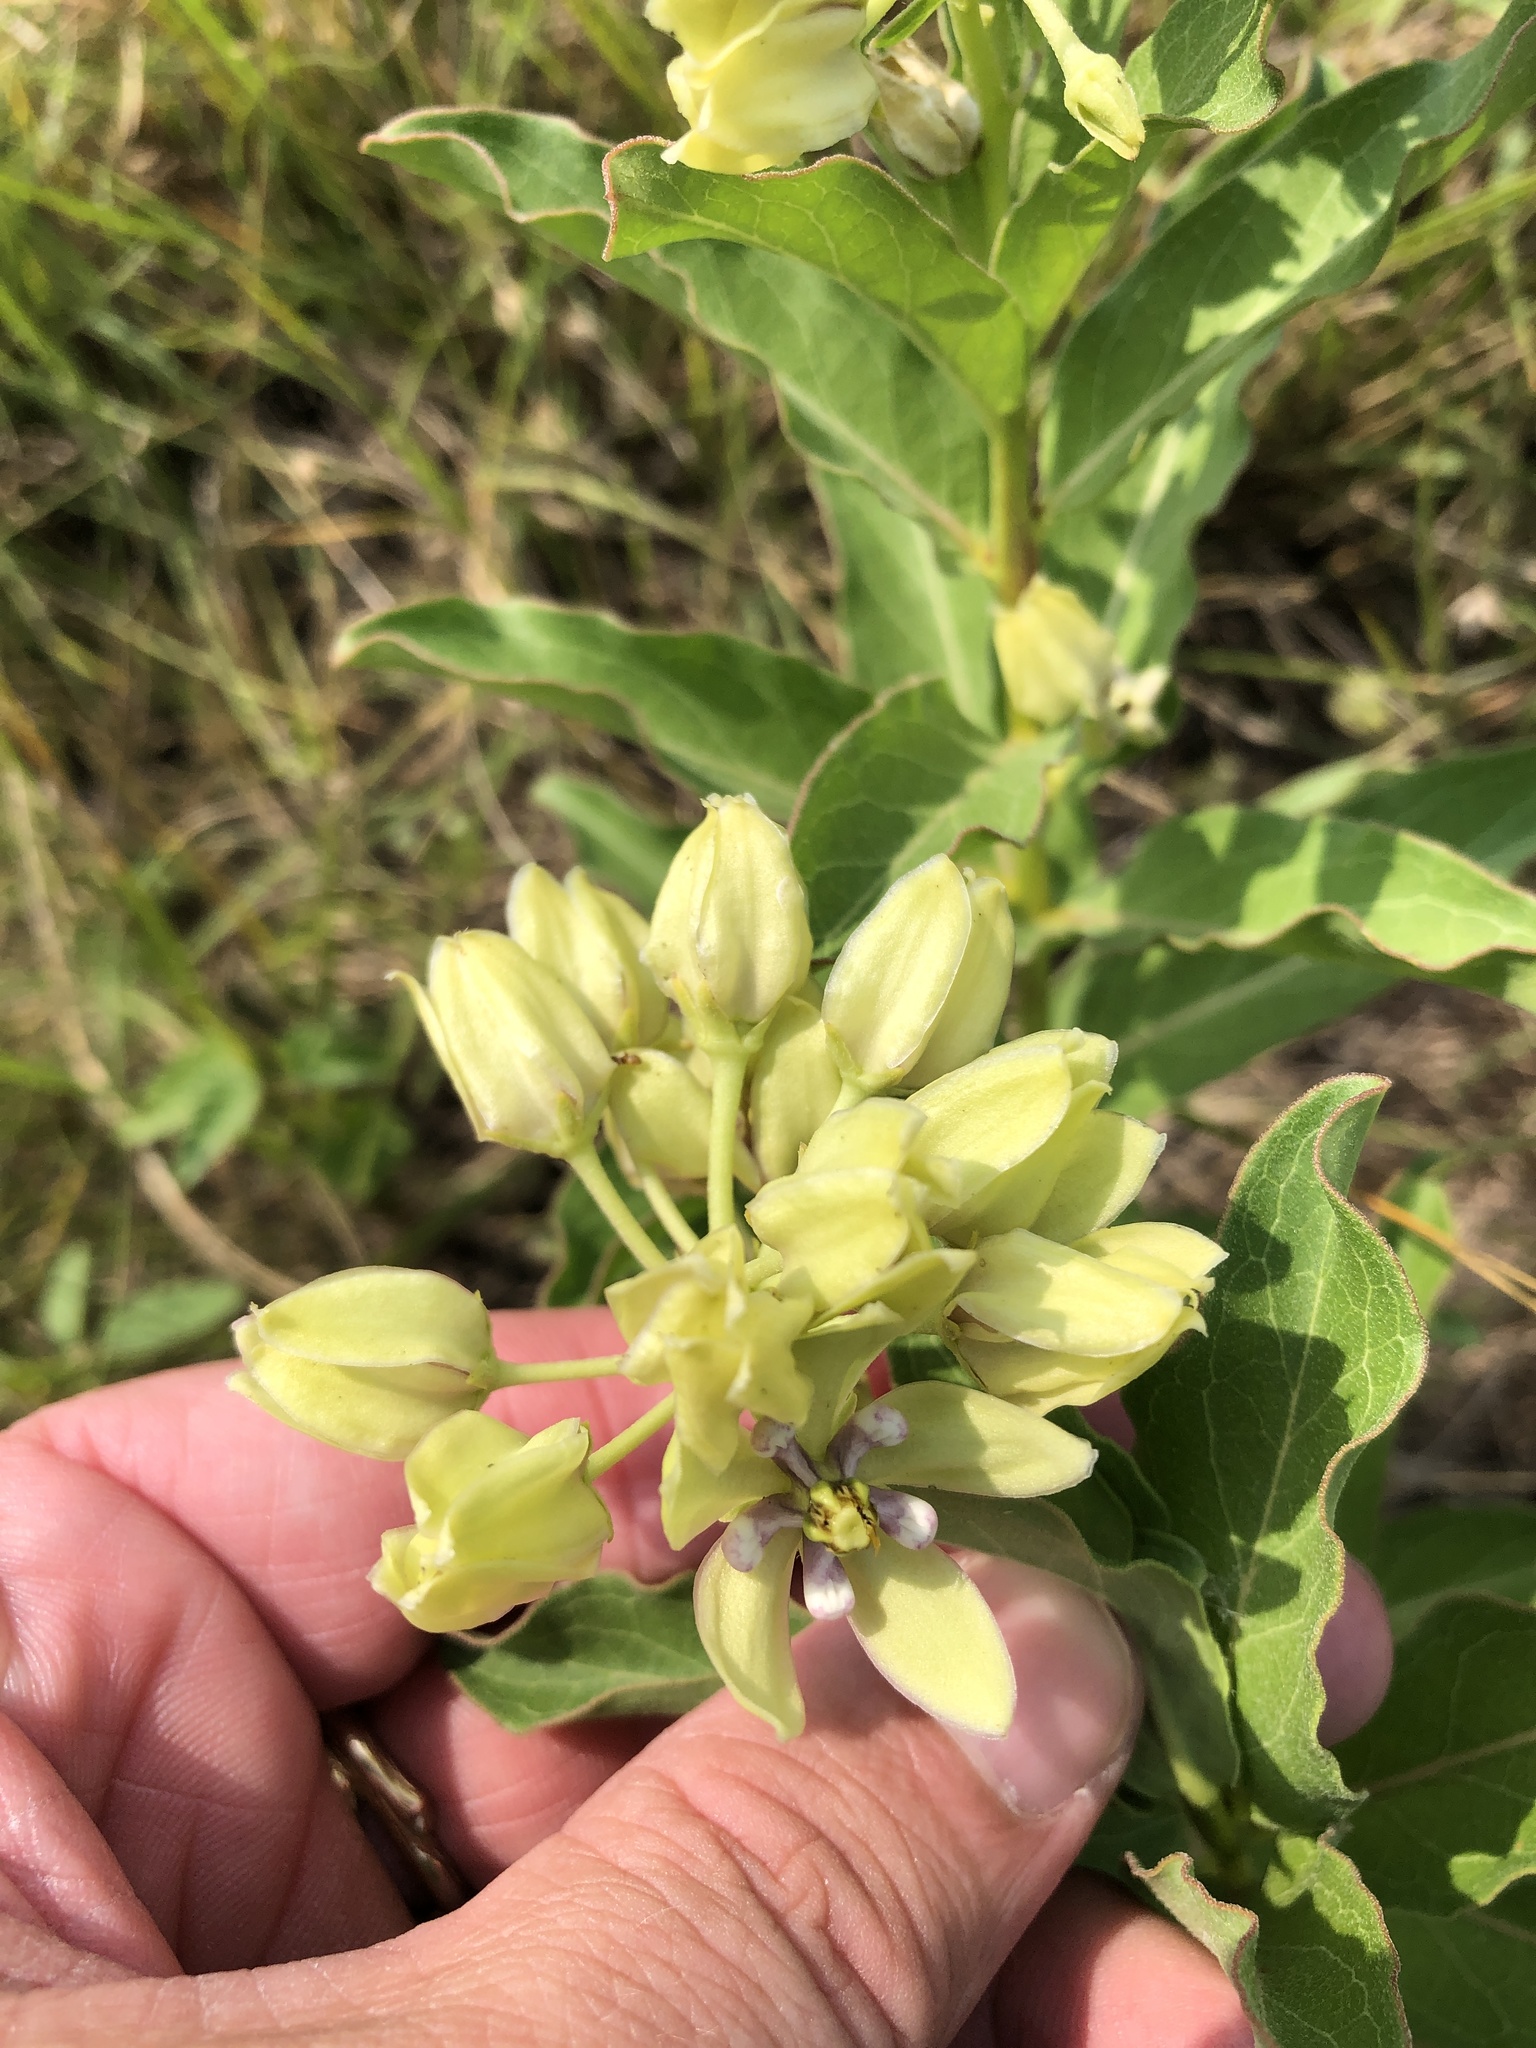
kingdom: Plantae
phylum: Tracheophyta
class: Magnoliopsida
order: Gentianales
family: Apocynaceae
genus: Asclepias
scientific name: Asclepias viridis
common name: Antelope-horns
